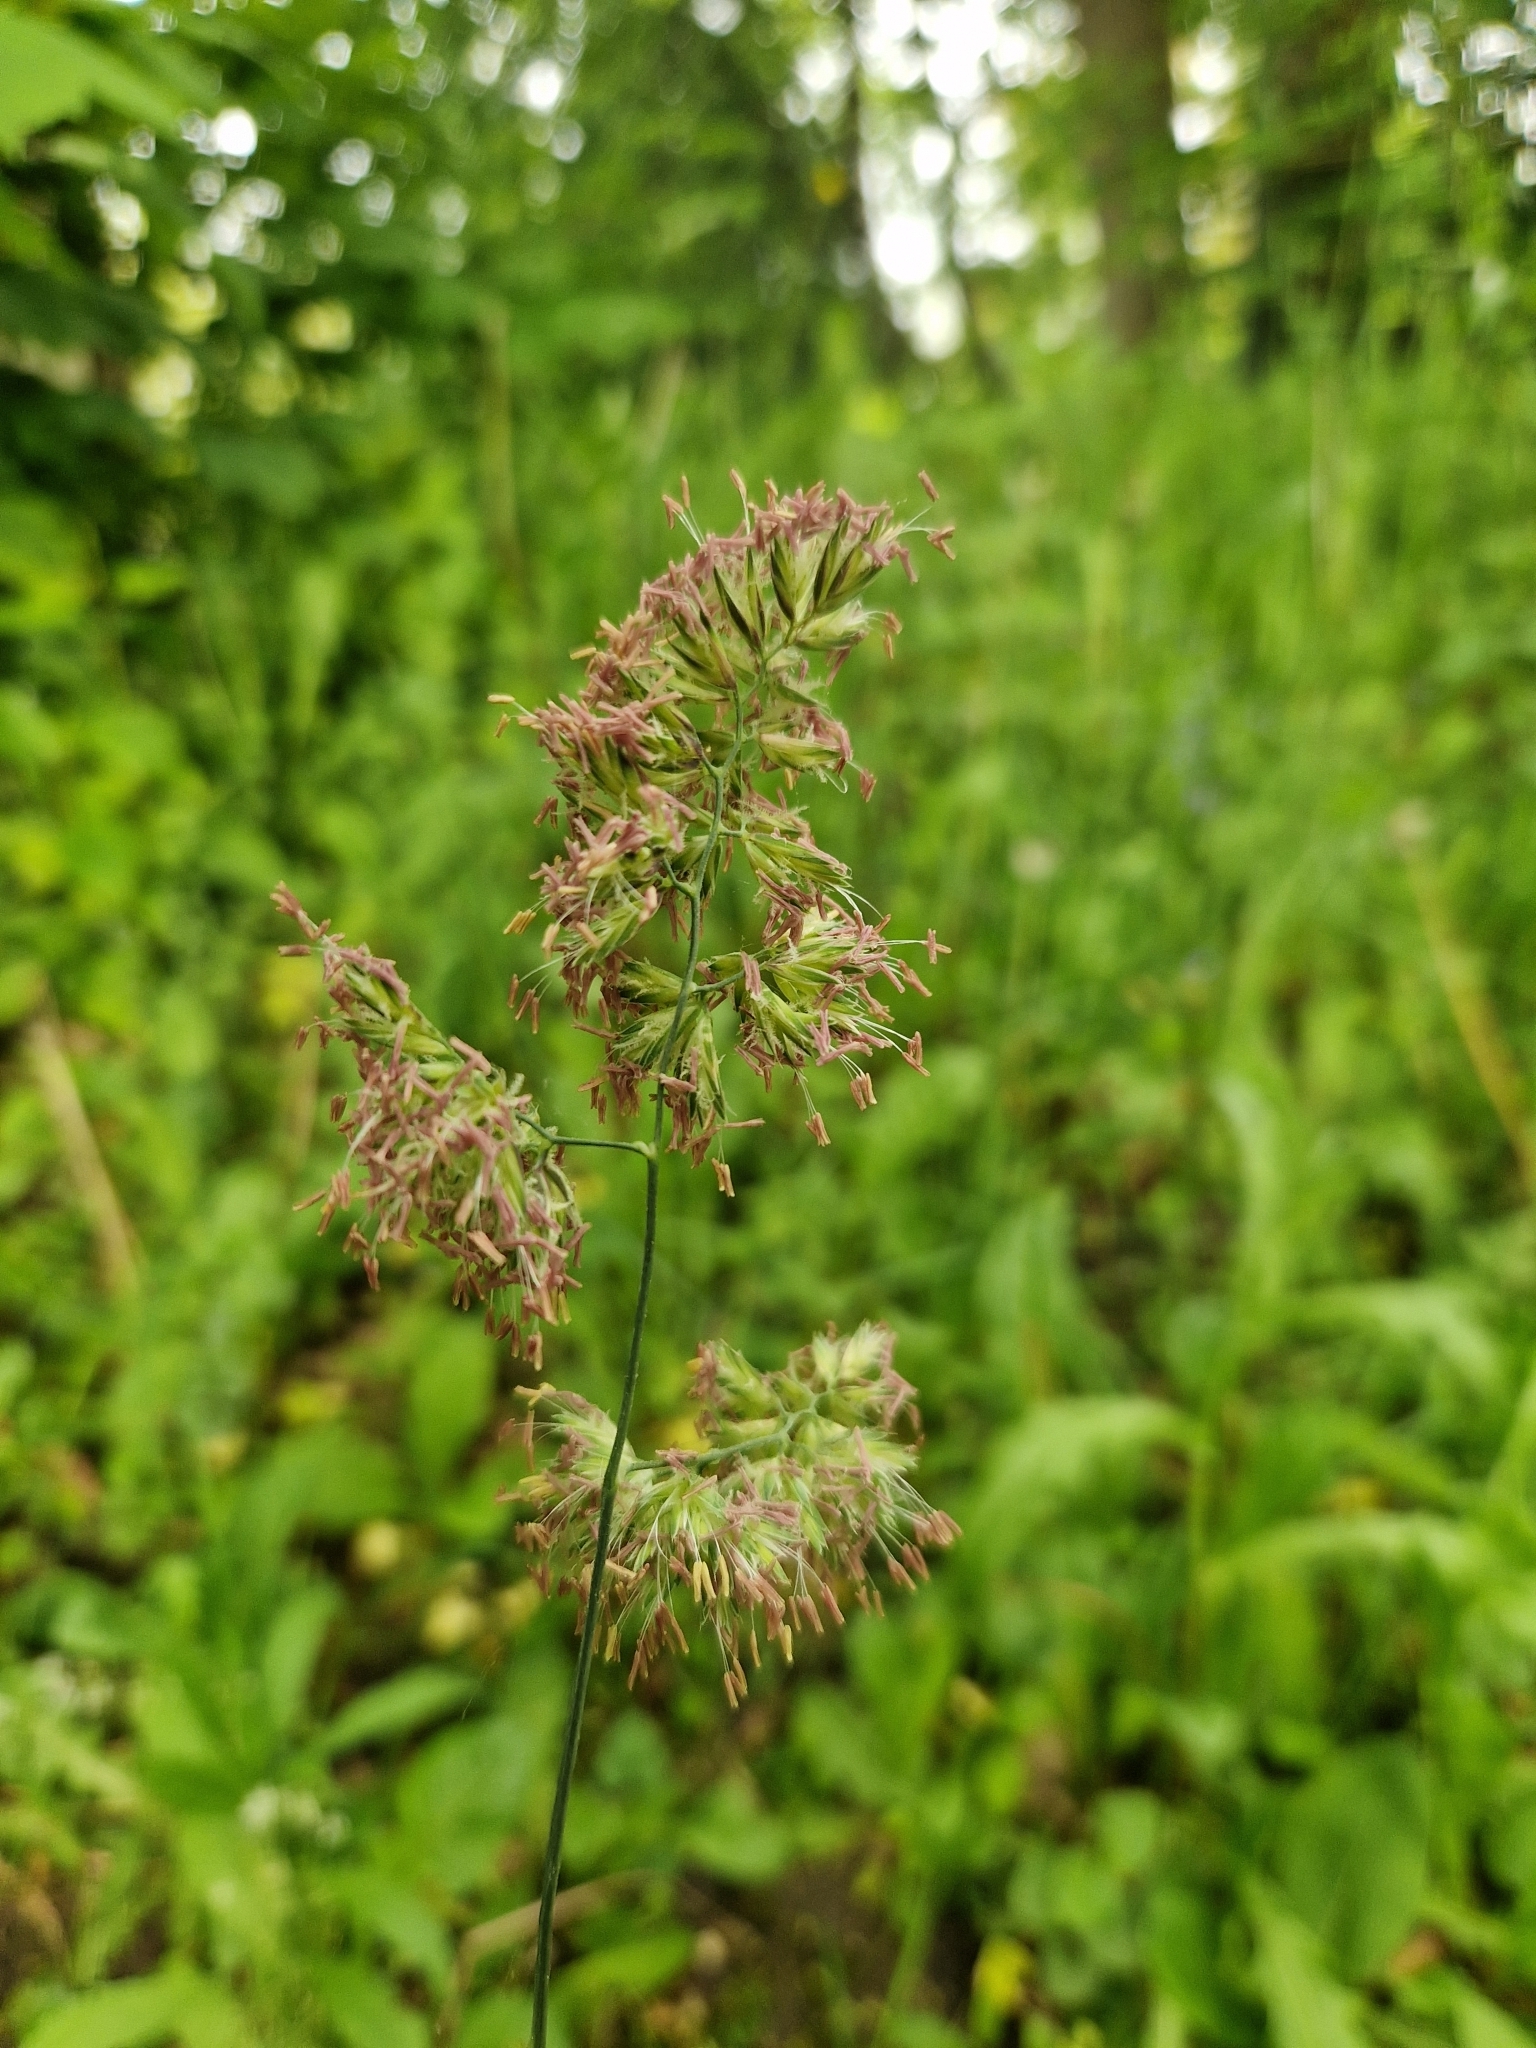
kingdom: Plantae
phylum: Tracheophyta
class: Liliopsida
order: Poales
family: Poaceae
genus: Dactylis
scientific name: Dactylis glomerata
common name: Orchardgrass
